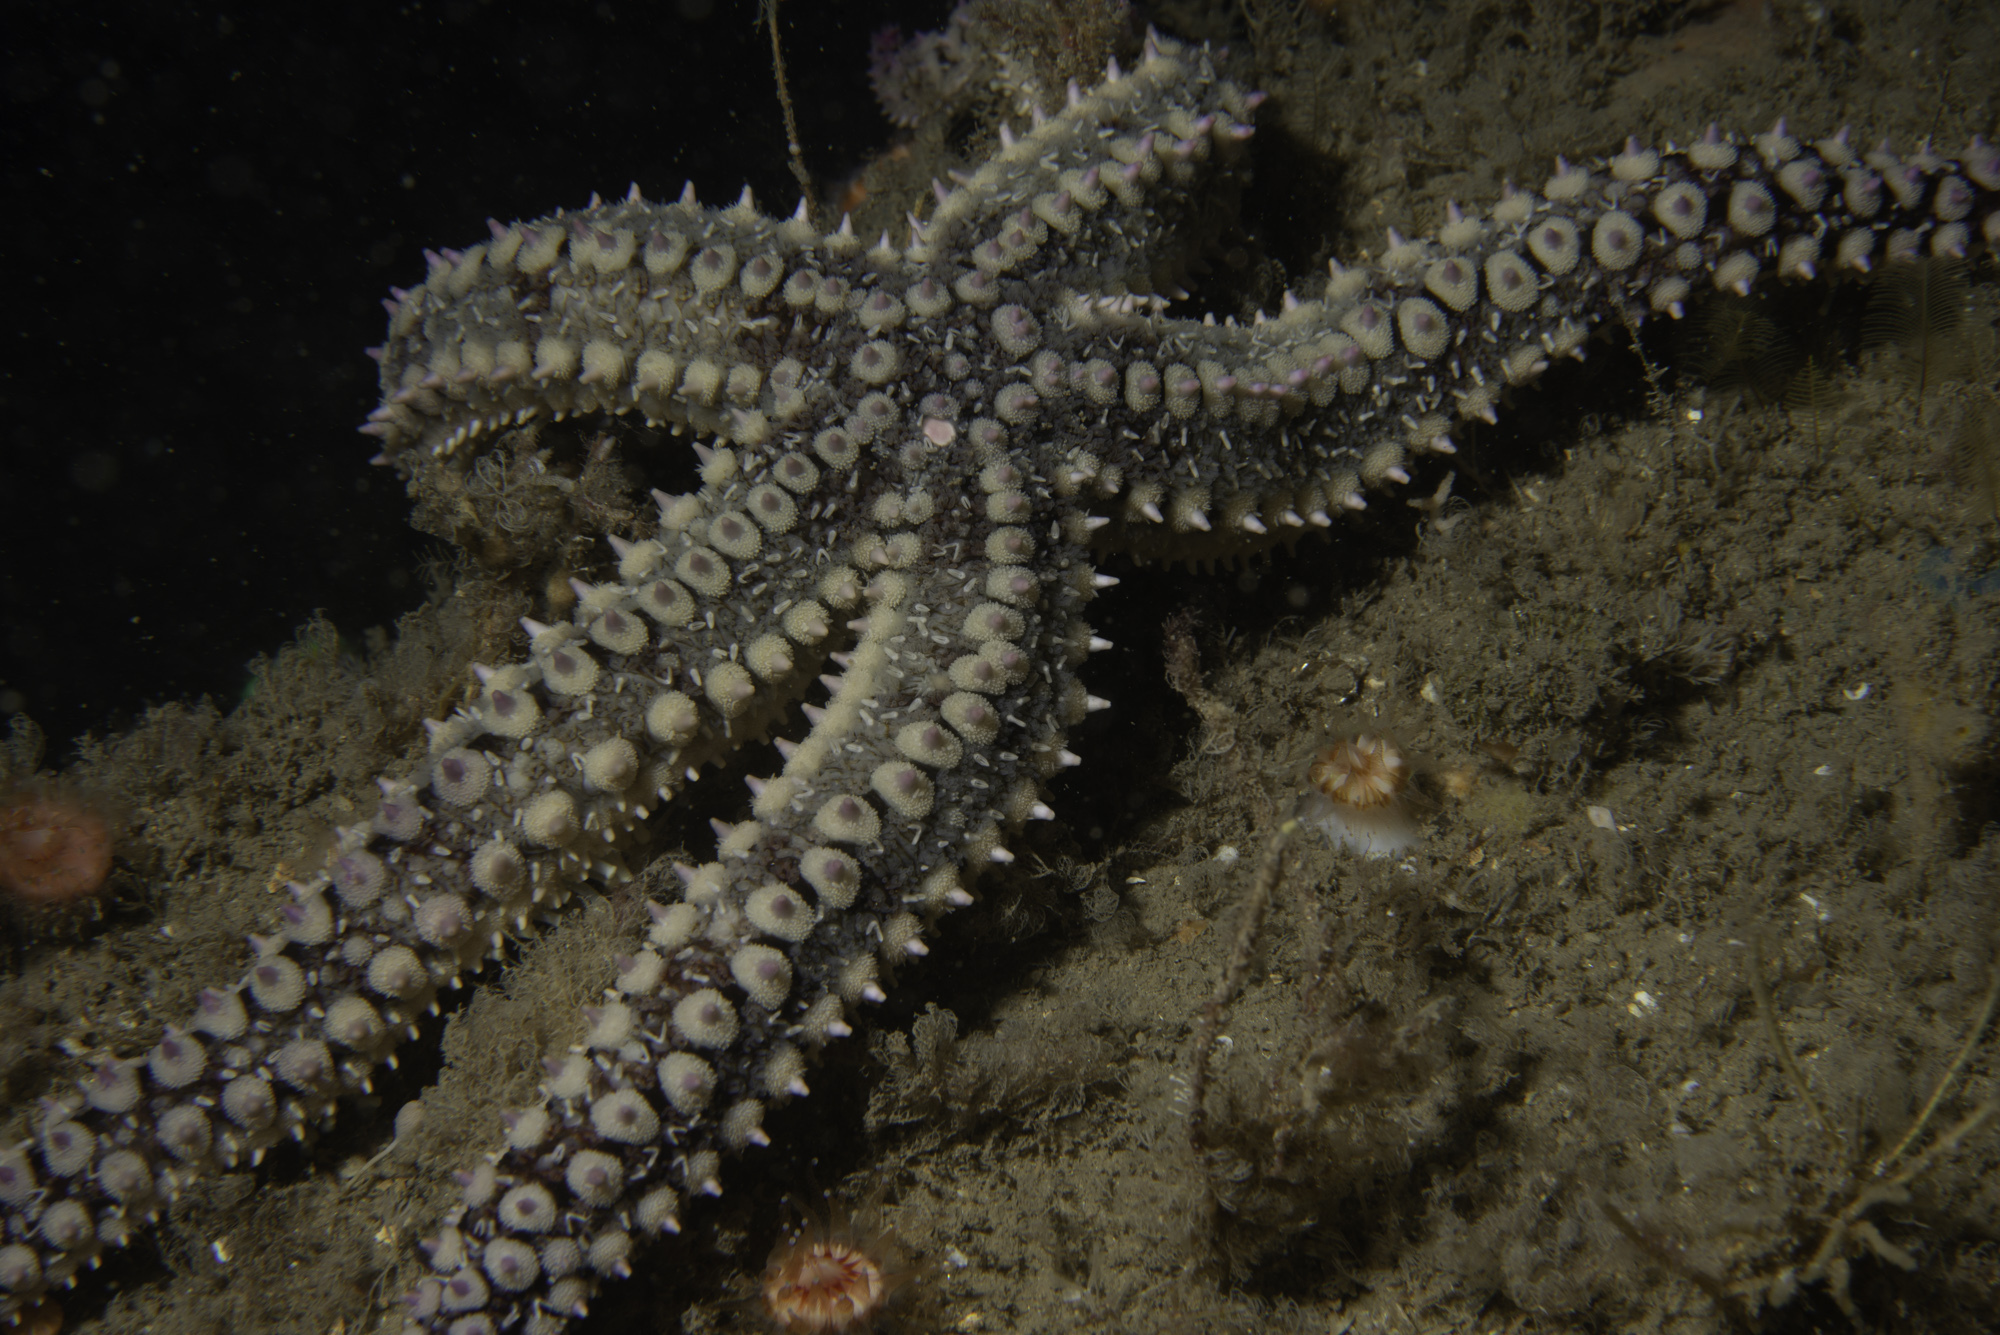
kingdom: Animalia
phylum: Echinodermata
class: Asteroidea
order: Forcipulatida
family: Asteriidae
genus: Marthasterias
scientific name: Marthasterias glacialis
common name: Spiny starfish
